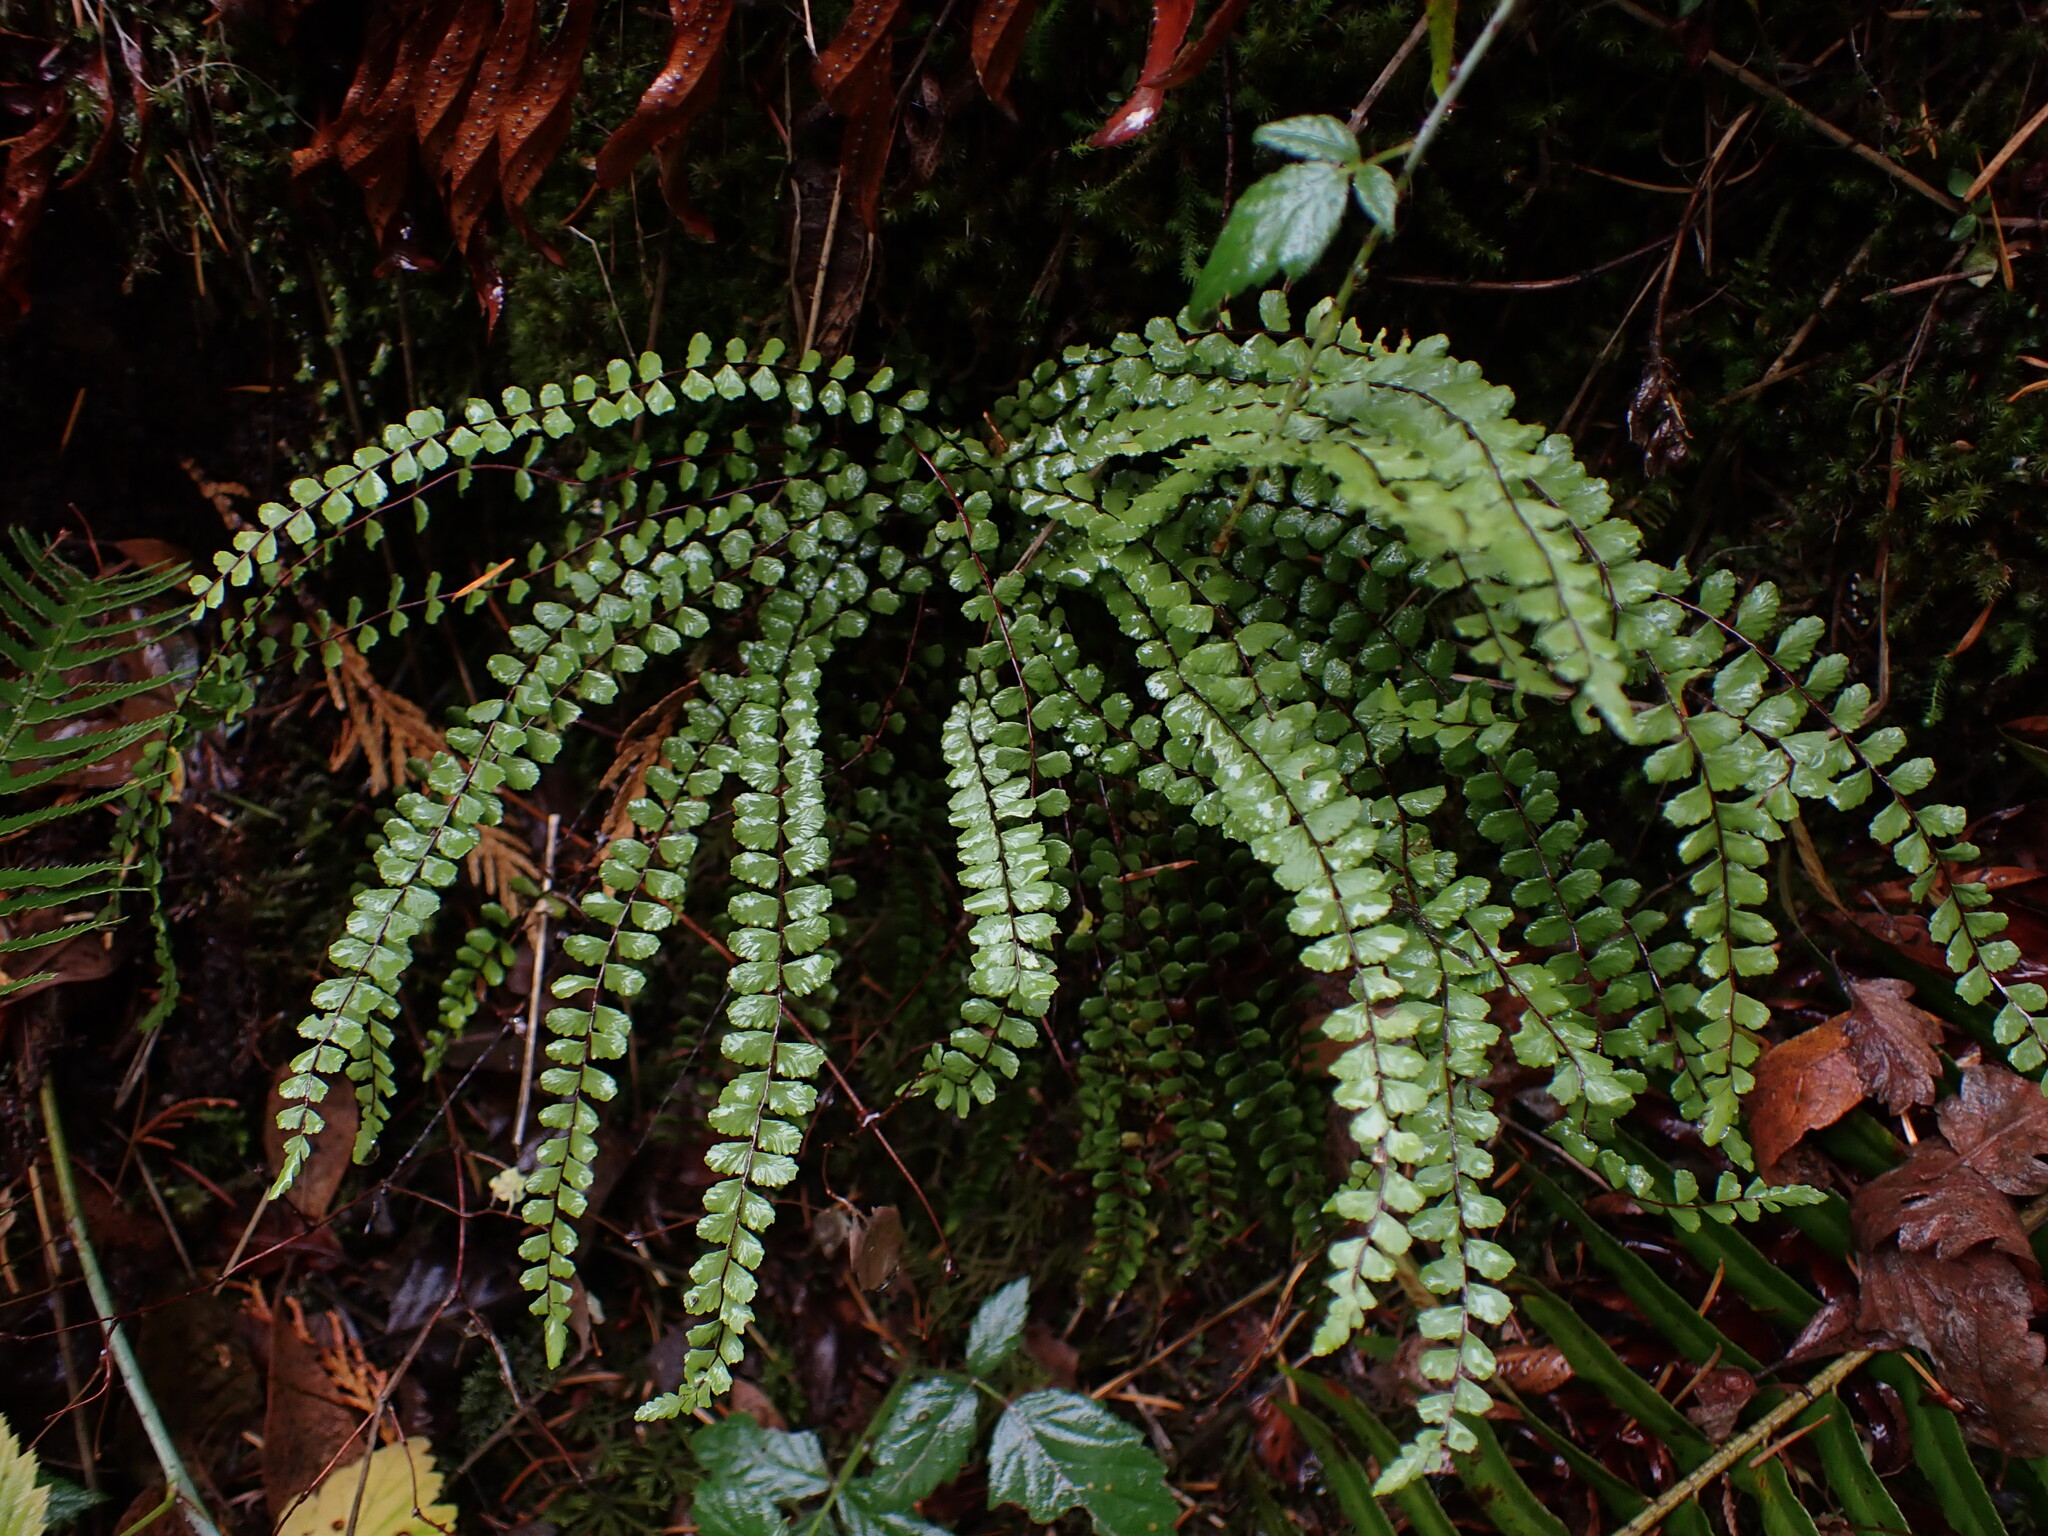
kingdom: Plantae
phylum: Tracheophyta
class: Polypodiopsida
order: Polypodiales
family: Aspleniaceae
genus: Asplenium
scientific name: Asplenium trichomanes
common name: Maidenhair spleenwort
